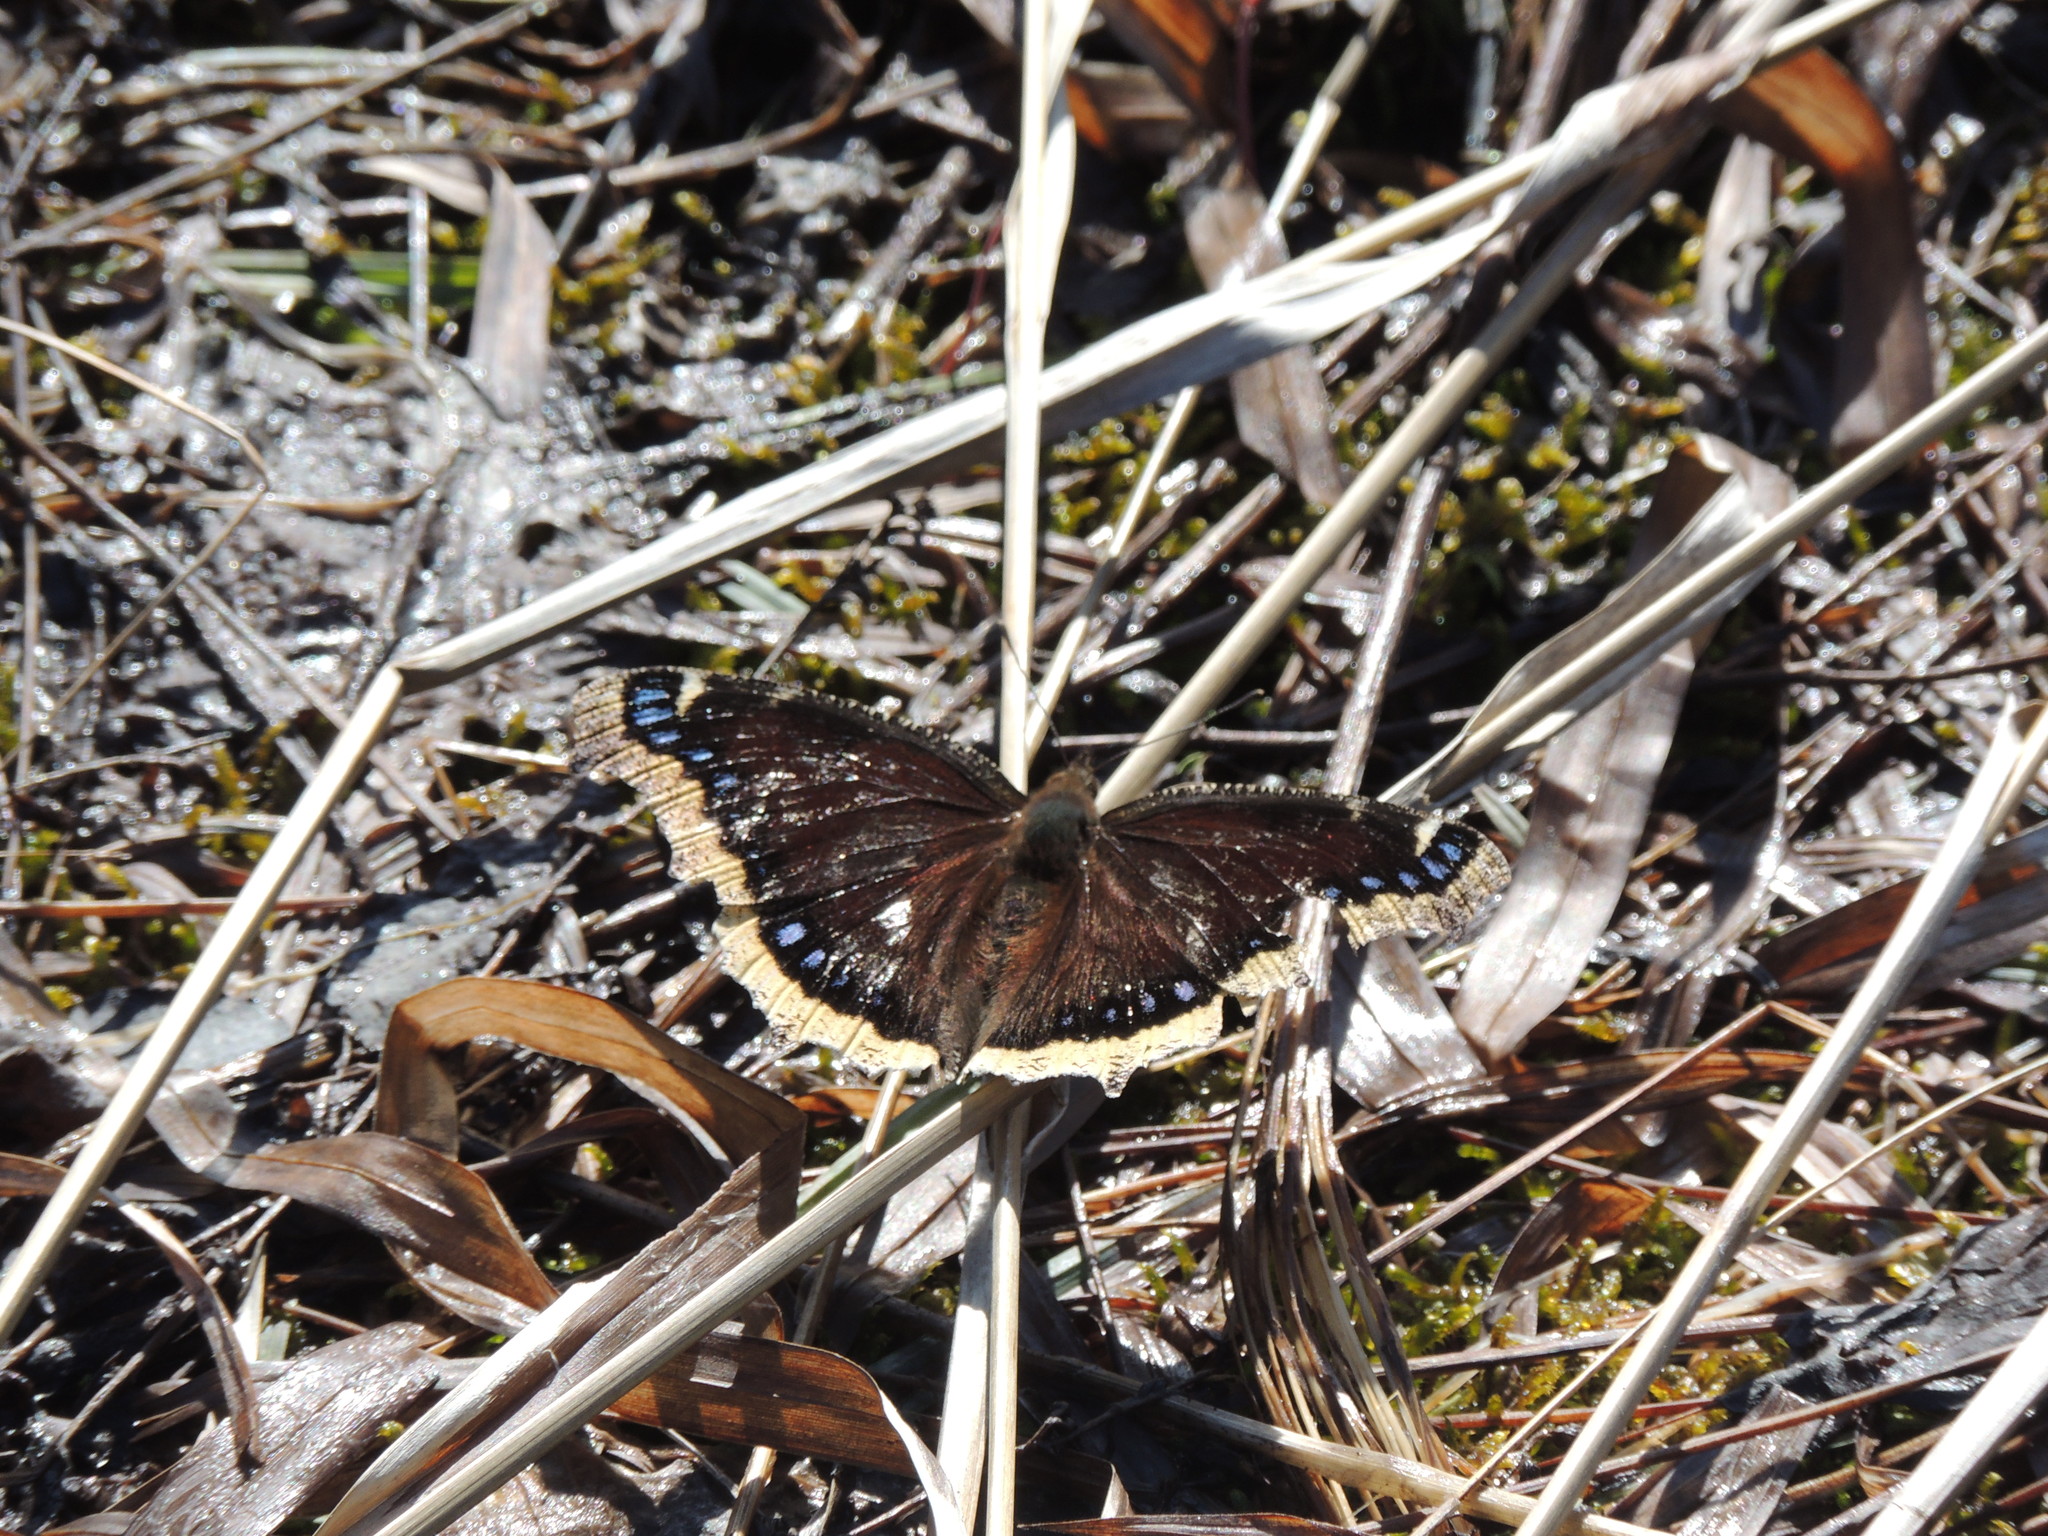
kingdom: Animalia
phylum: Arthropoda
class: Insecta
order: Lepidoptera
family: Nymphalidae
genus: Nymphalis
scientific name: Nymphalis antiopa
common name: Camberwell beauty
